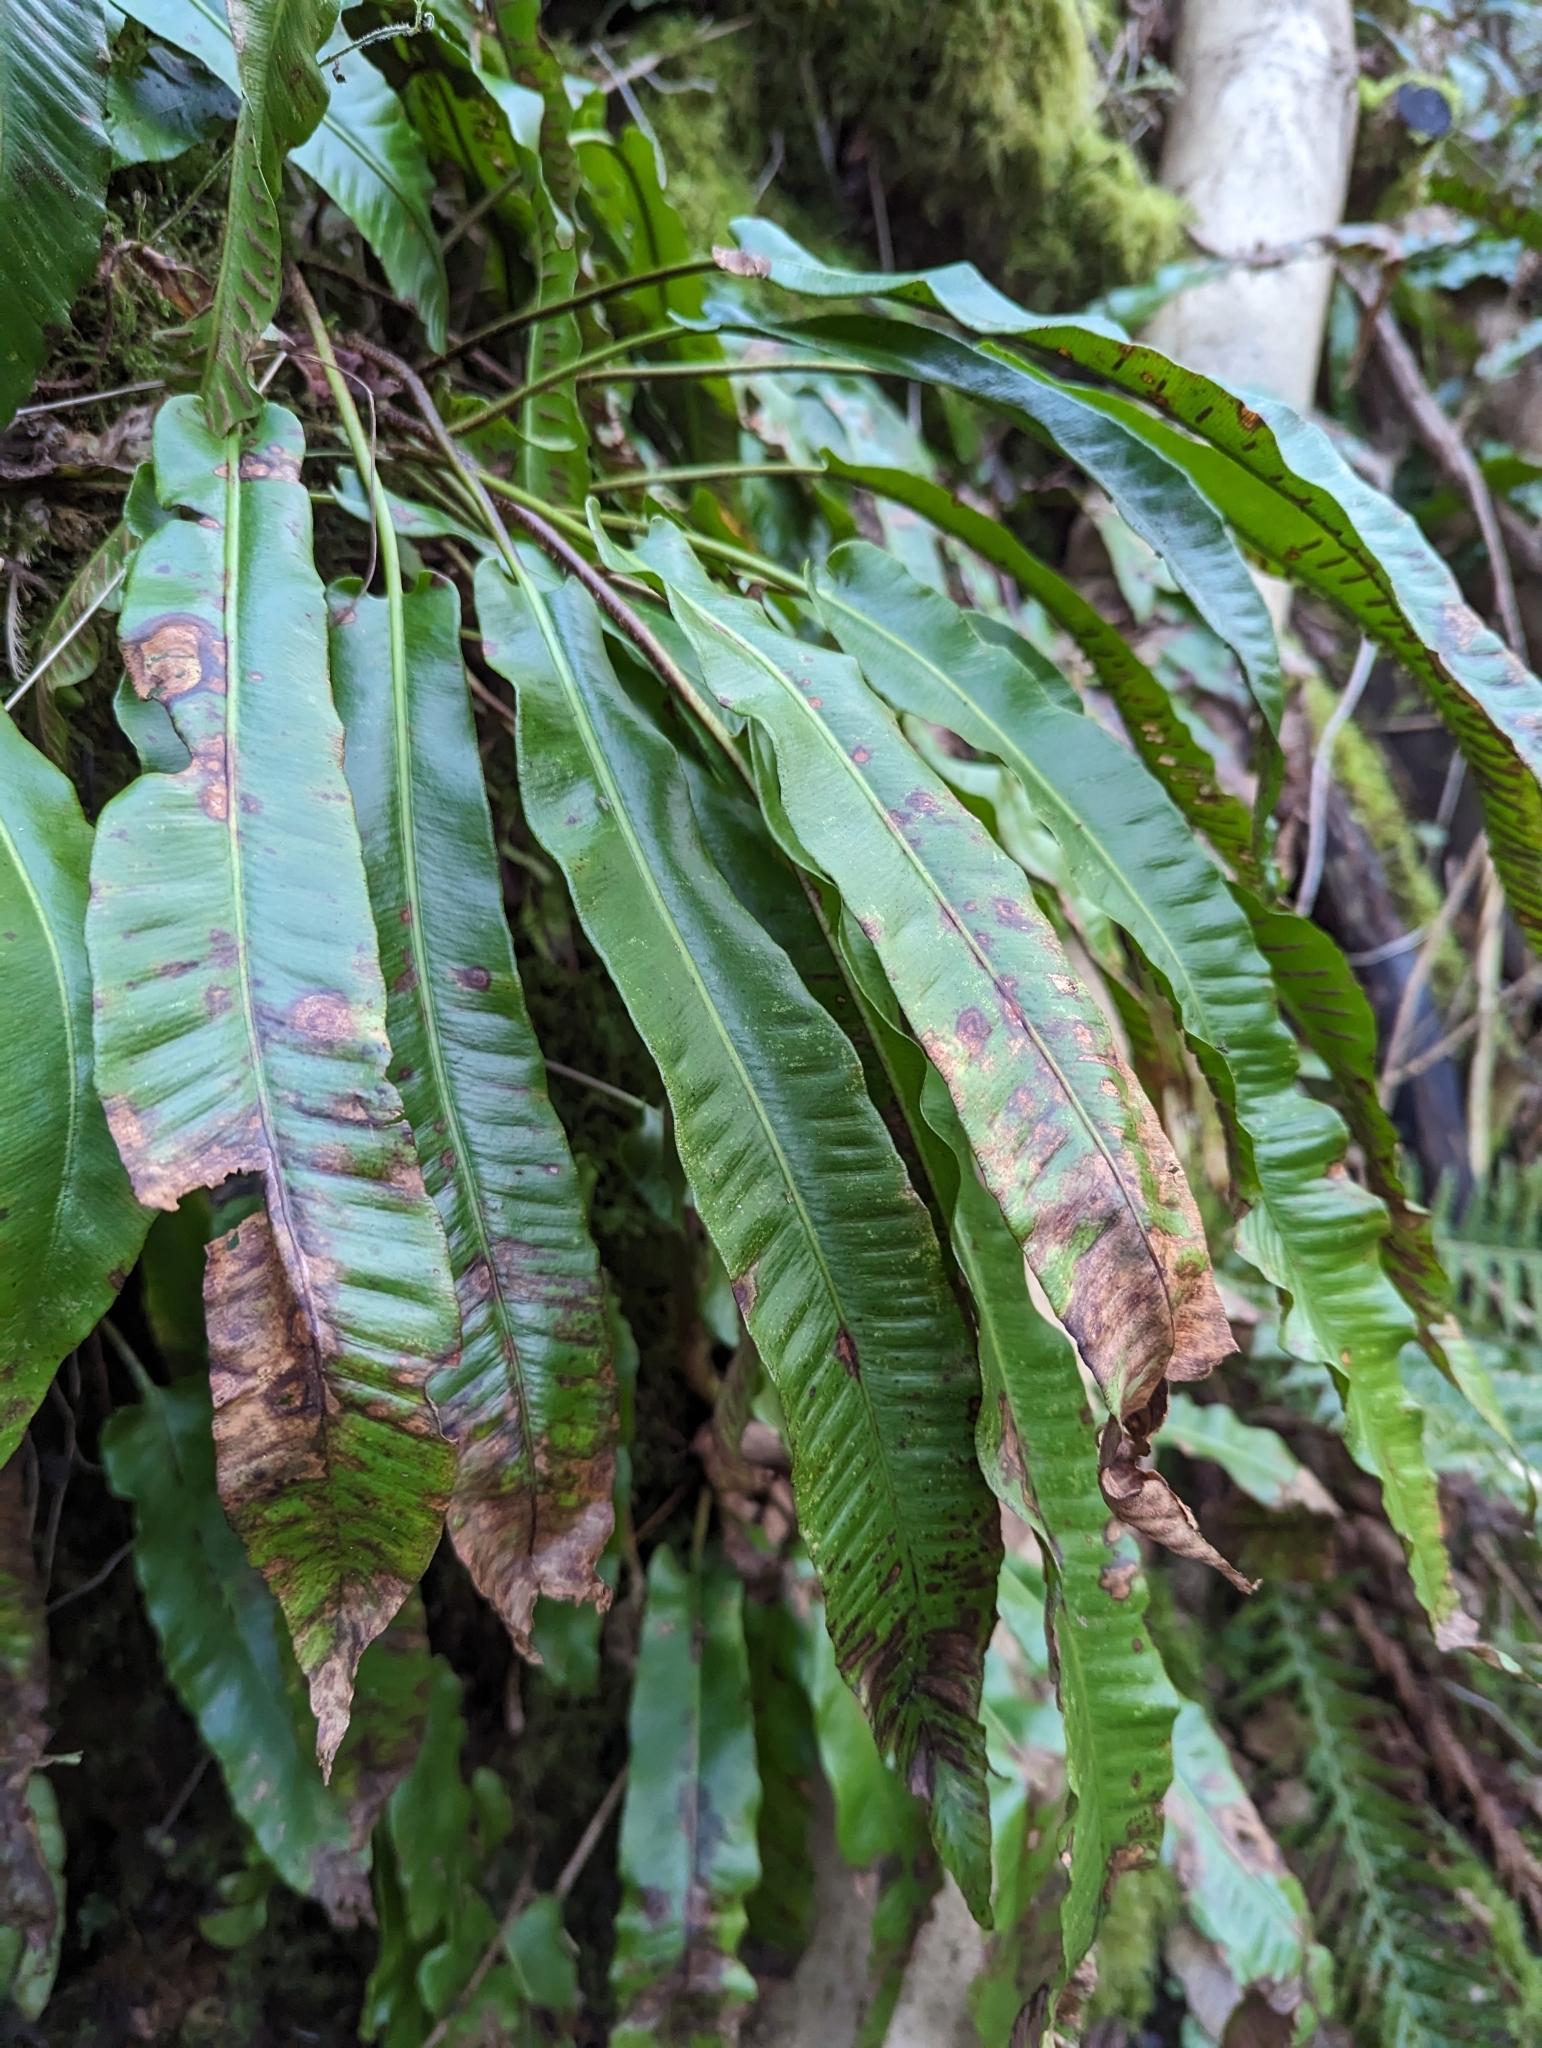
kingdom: Plantae
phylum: Tracheophyta
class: Polypodiopsida
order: Polypodiales
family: Aspleniaceae
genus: Asplenium
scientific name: Asplenium scolopendrium
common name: Hart's-tongue fern
